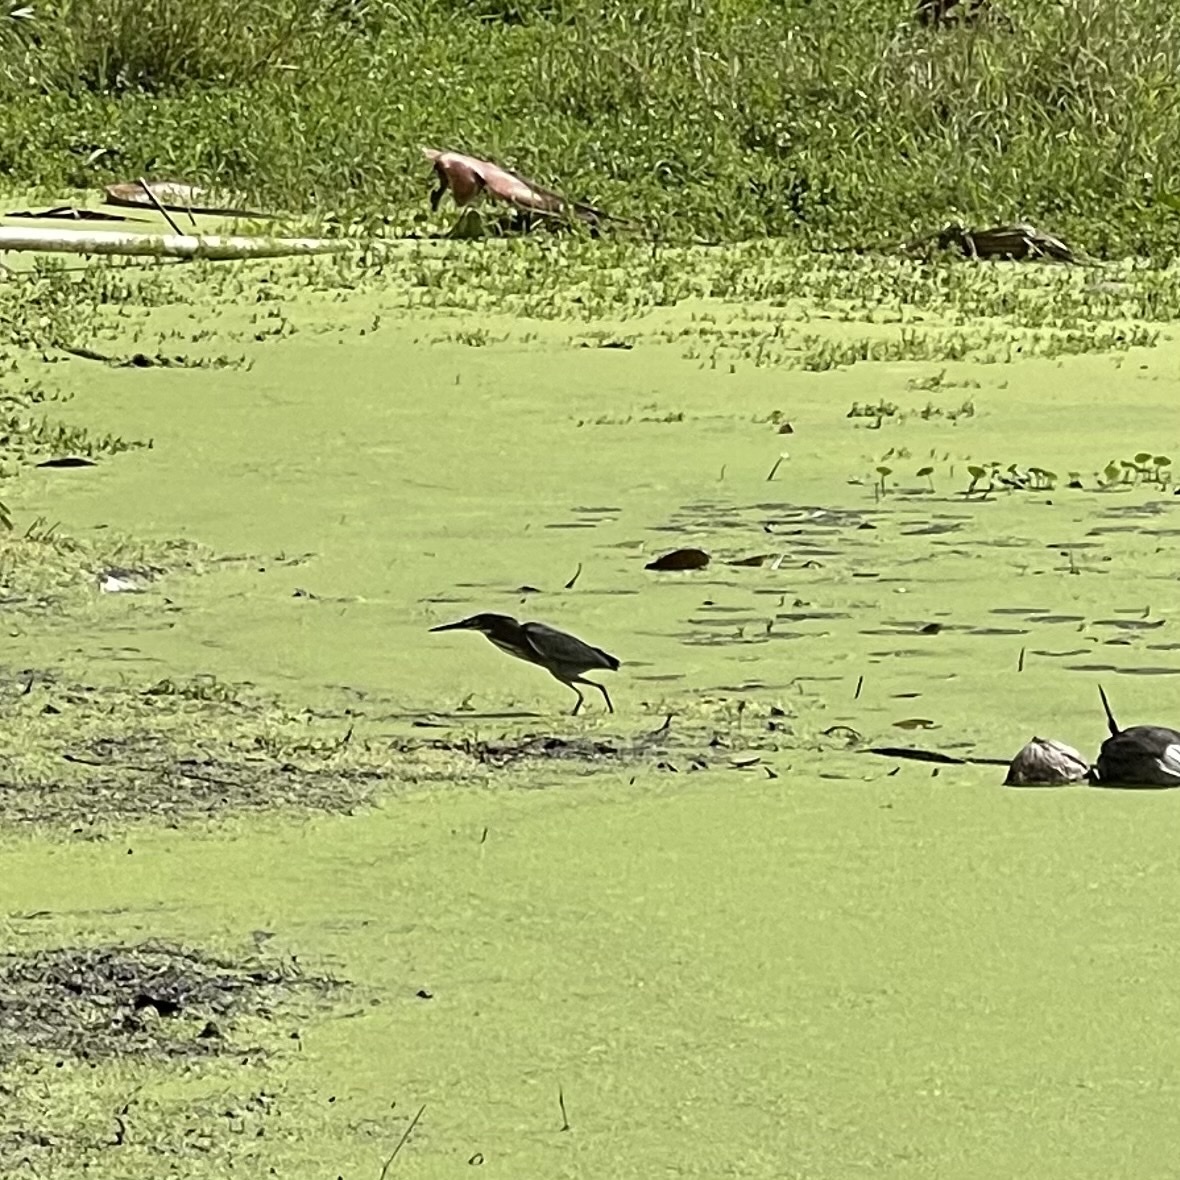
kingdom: Animalia
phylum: Chordata
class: Aves
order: Pelecaniformes
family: Ardeidae
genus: Butorides
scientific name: Butorides virescens
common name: Green heron
